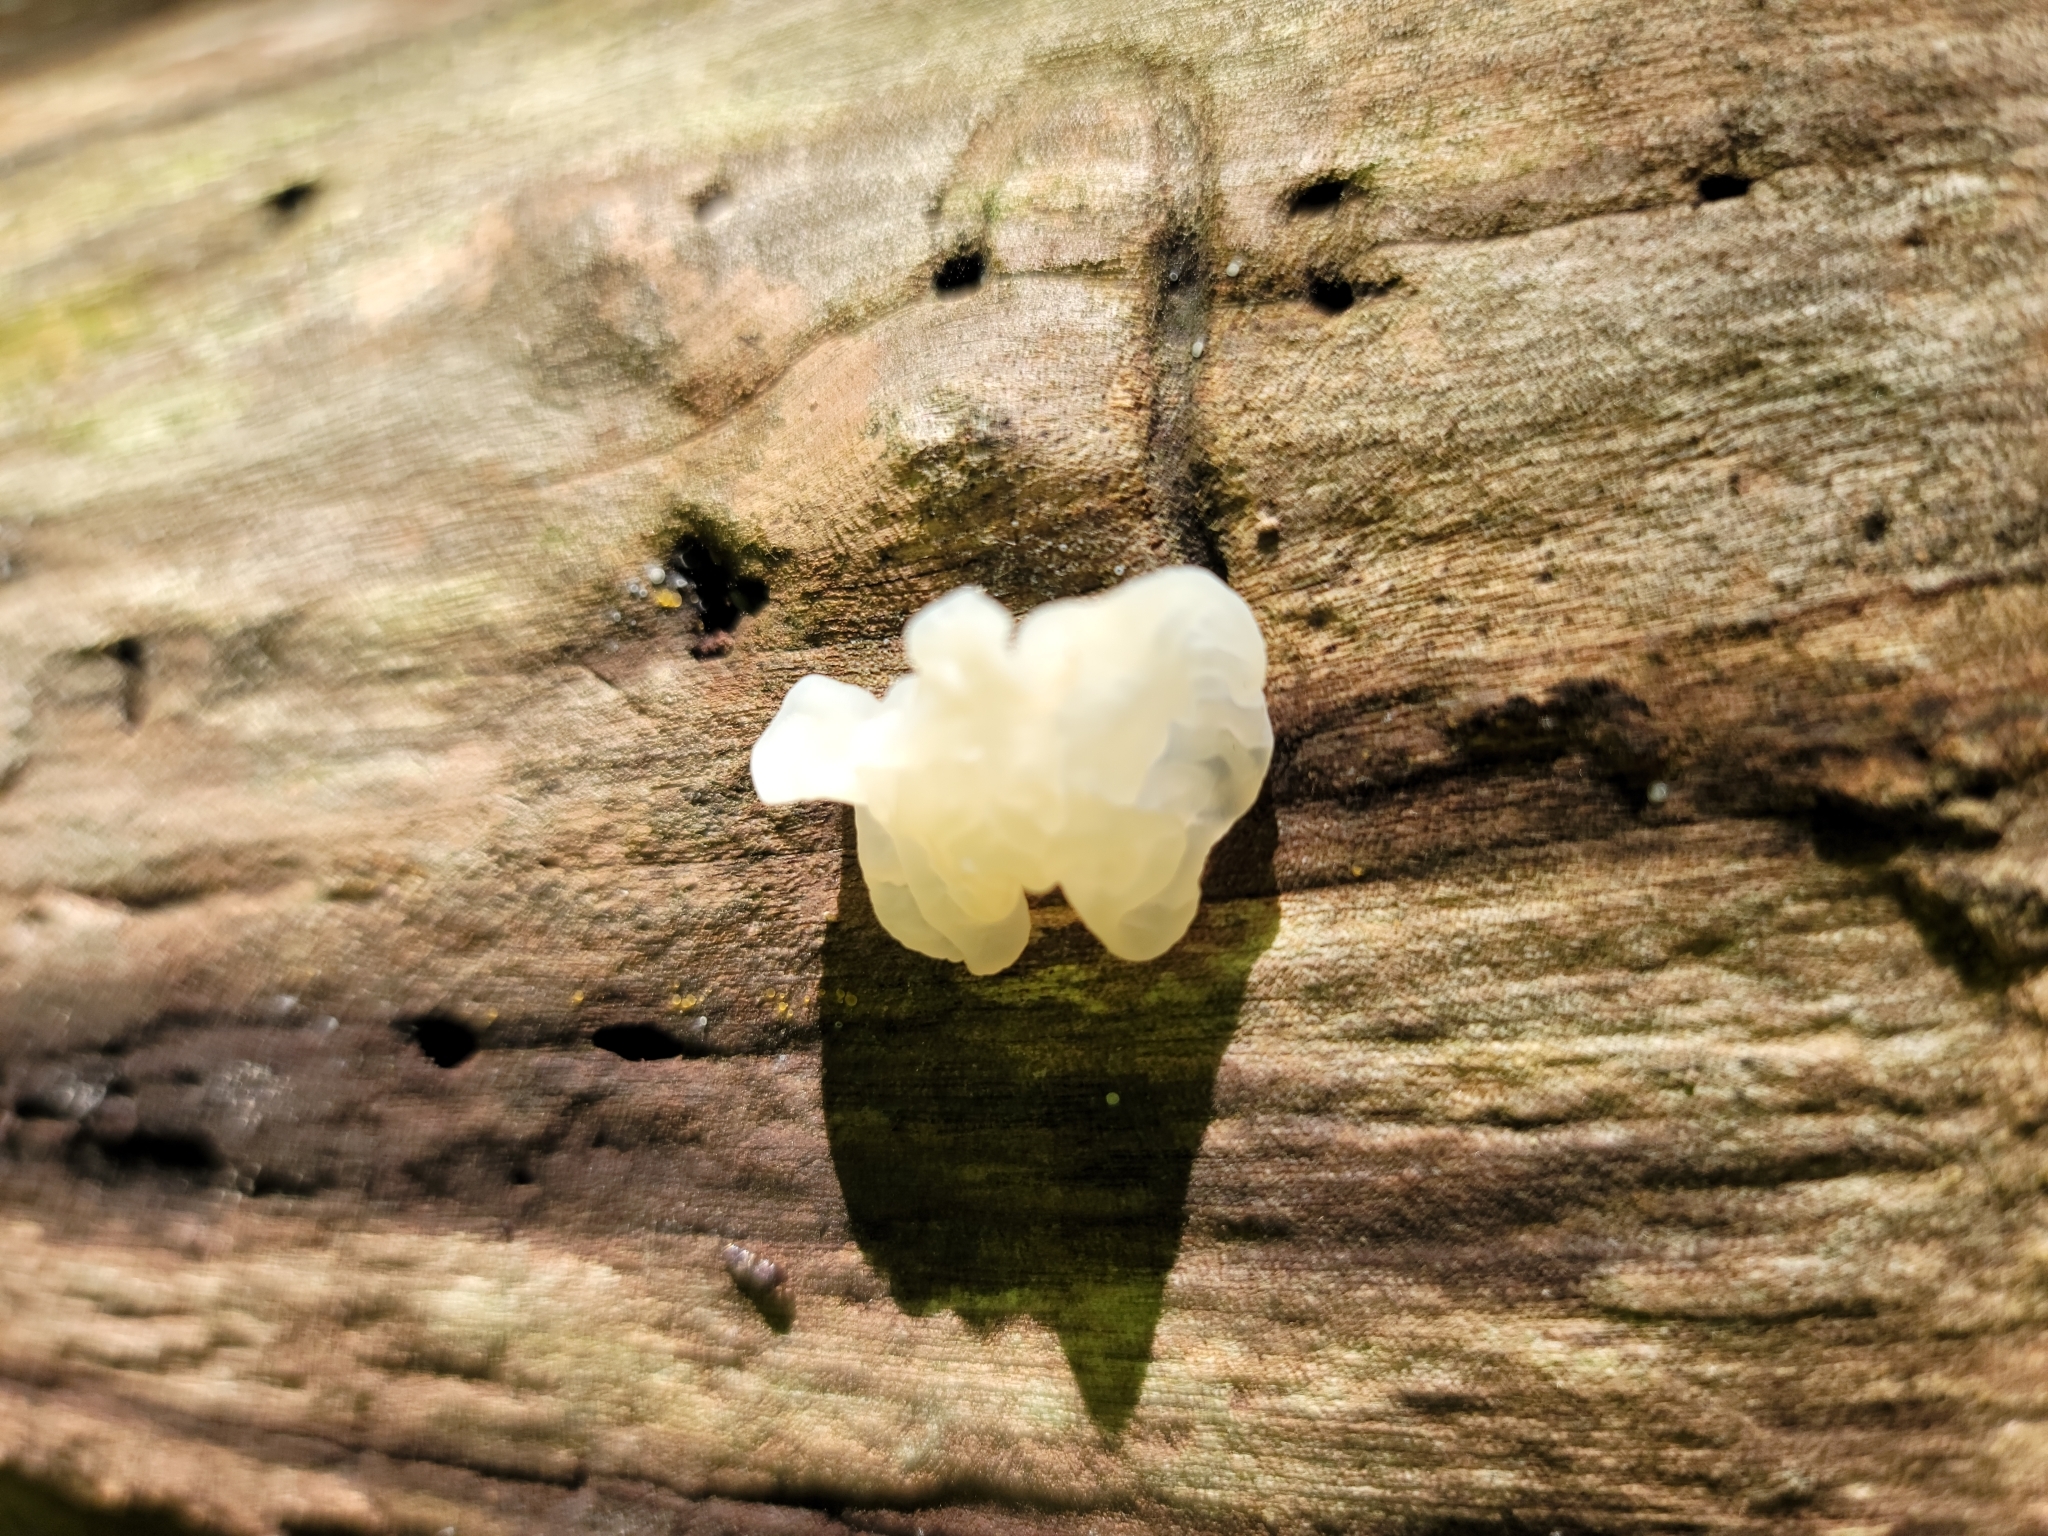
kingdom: Fungi
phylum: Basidiomycota
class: Agaricomycetes
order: Auriculariales
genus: Ductifera
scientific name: Ductifera pululahuana
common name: White jelly fungus
